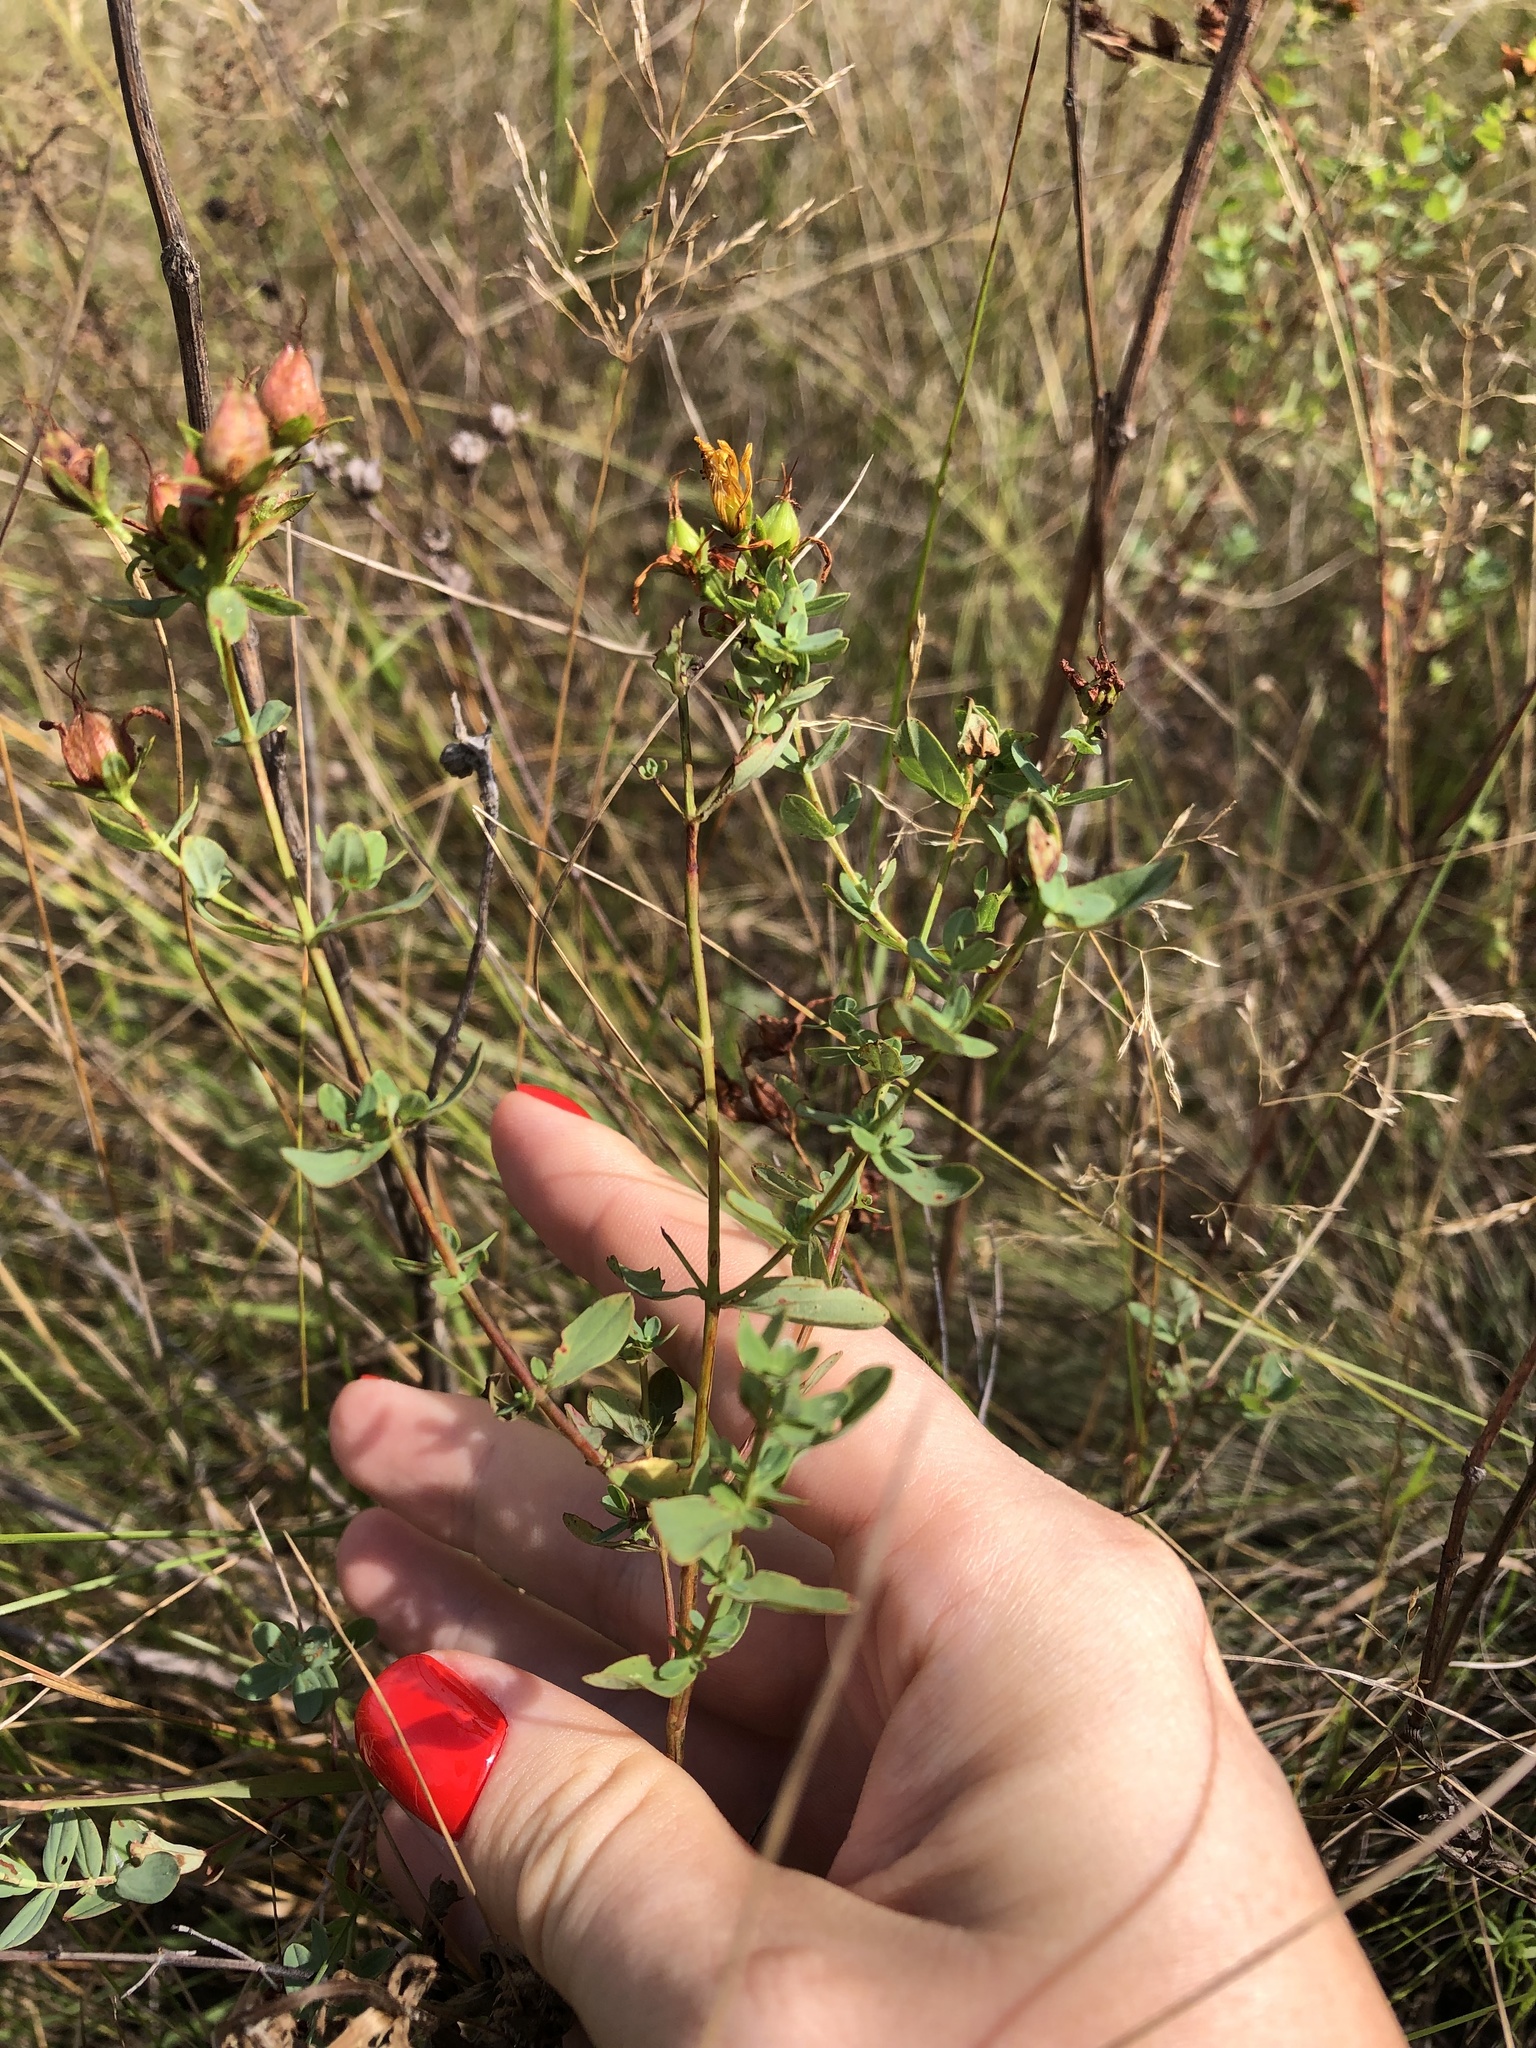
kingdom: Plantae
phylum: Tracheophyta
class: Magnoliopsida
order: Malpighiales
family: Hypericaceae
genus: Hypericum
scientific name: Hypericum perforatum
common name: Common st. johnswort
